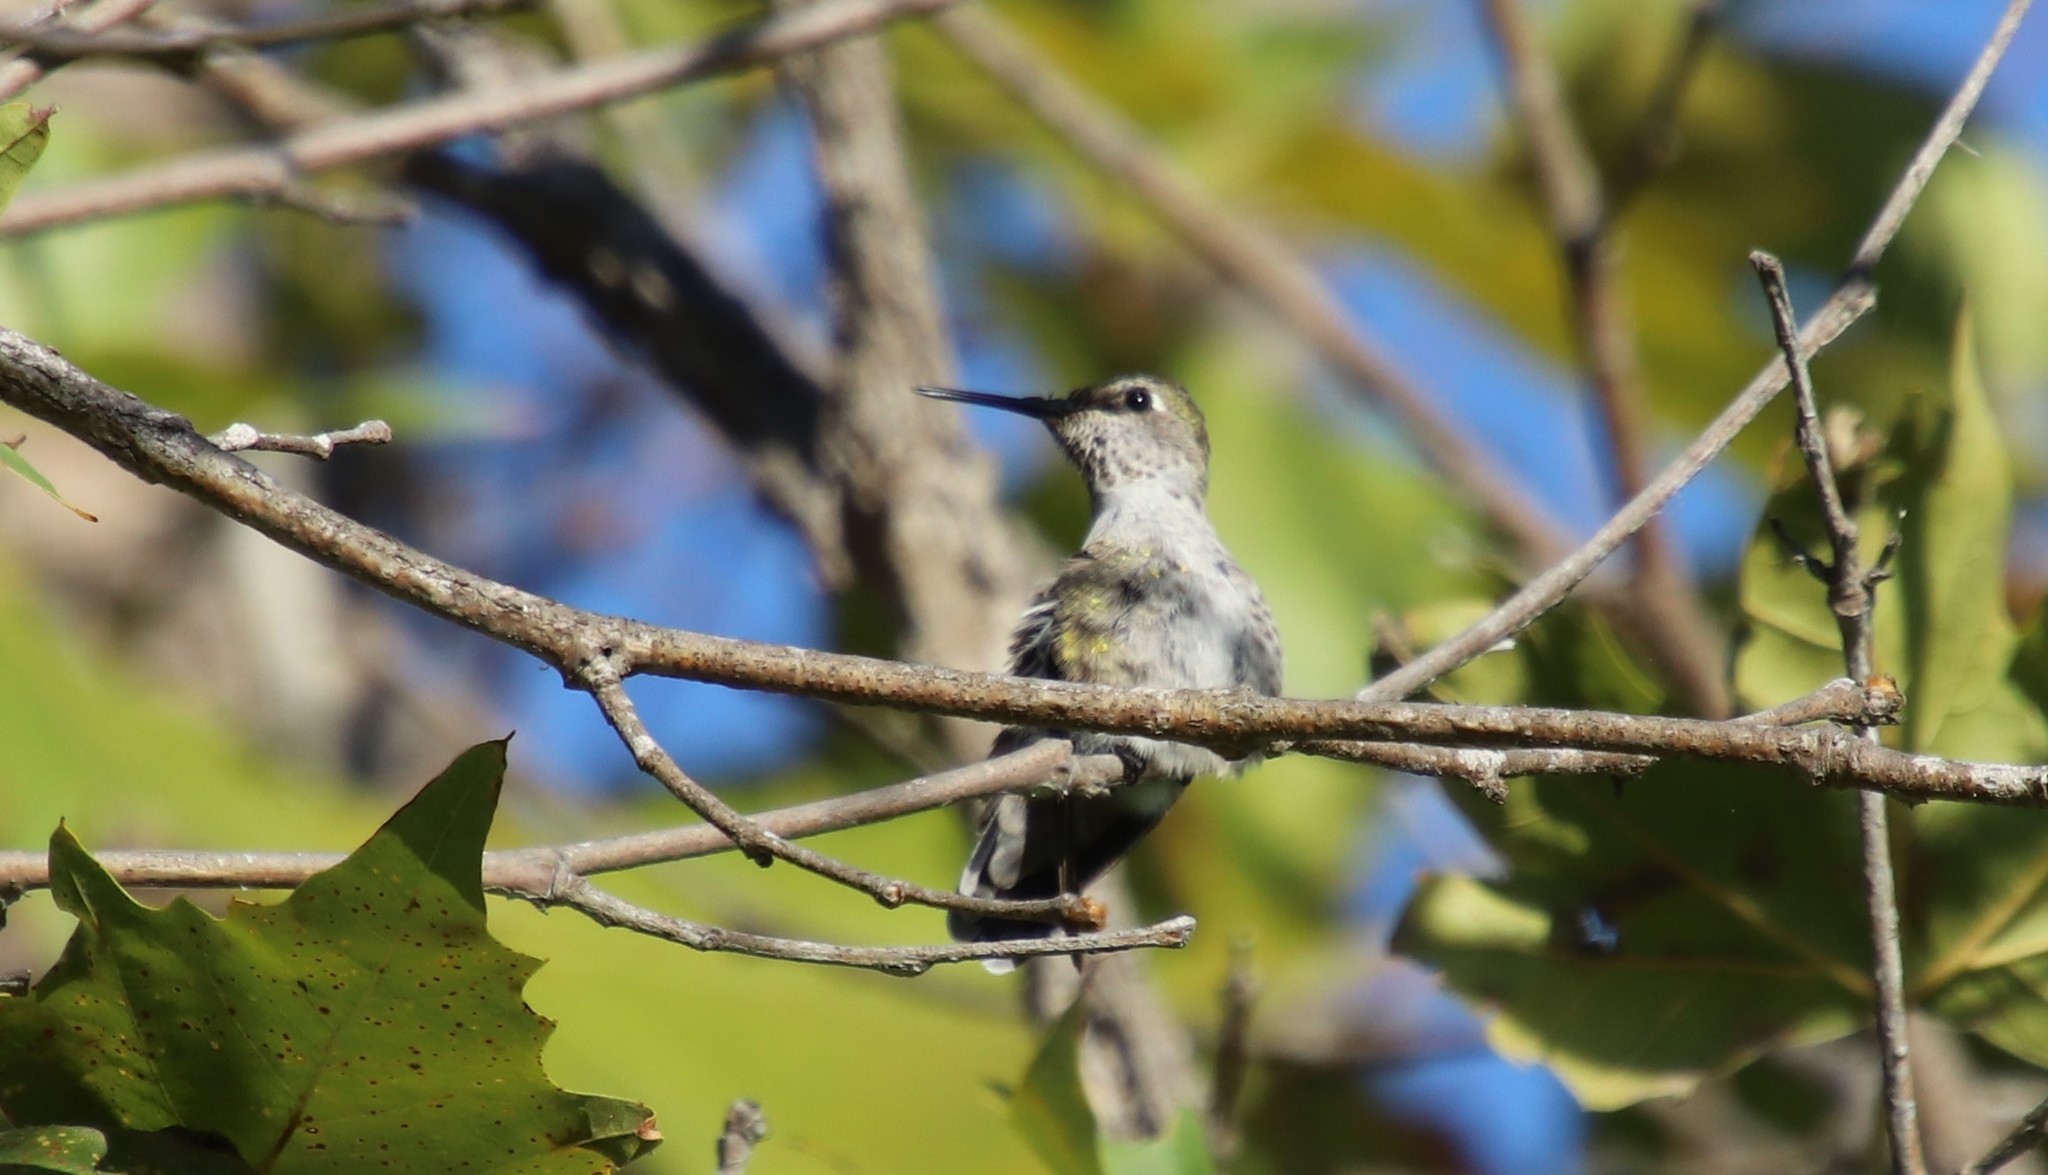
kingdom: Animalia
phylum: Chordata
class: Aves
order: Apodiformes
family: Trochilidae
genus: Calypte
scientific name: Calypte anna
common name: Anna's hummingbird
